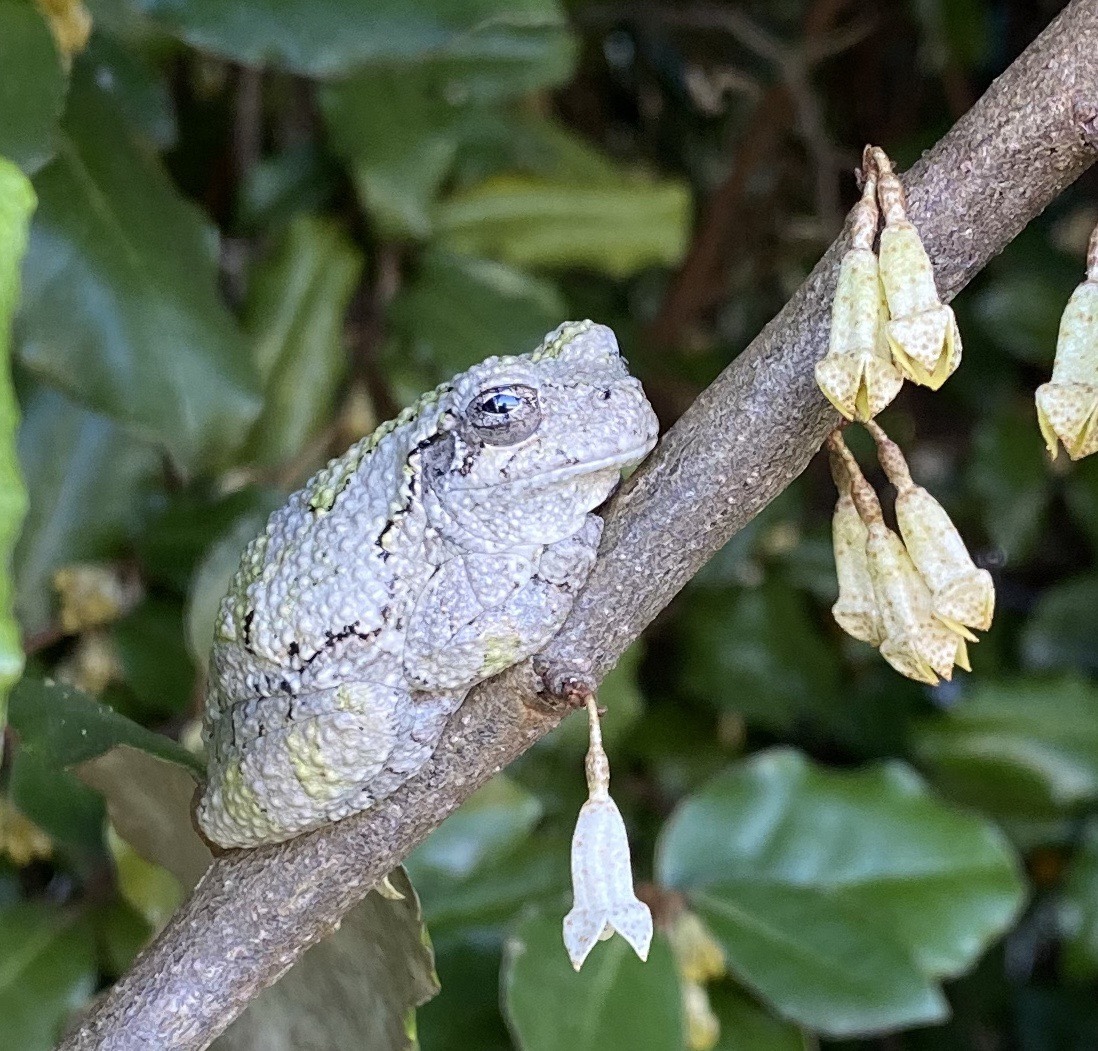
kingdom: Animalia
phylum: Chordata
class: Amphibia
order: Anura
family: Hylidae
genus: Dryophytes
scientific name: Dryophytes chrysoscelis
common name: Cope's gray treefrog
